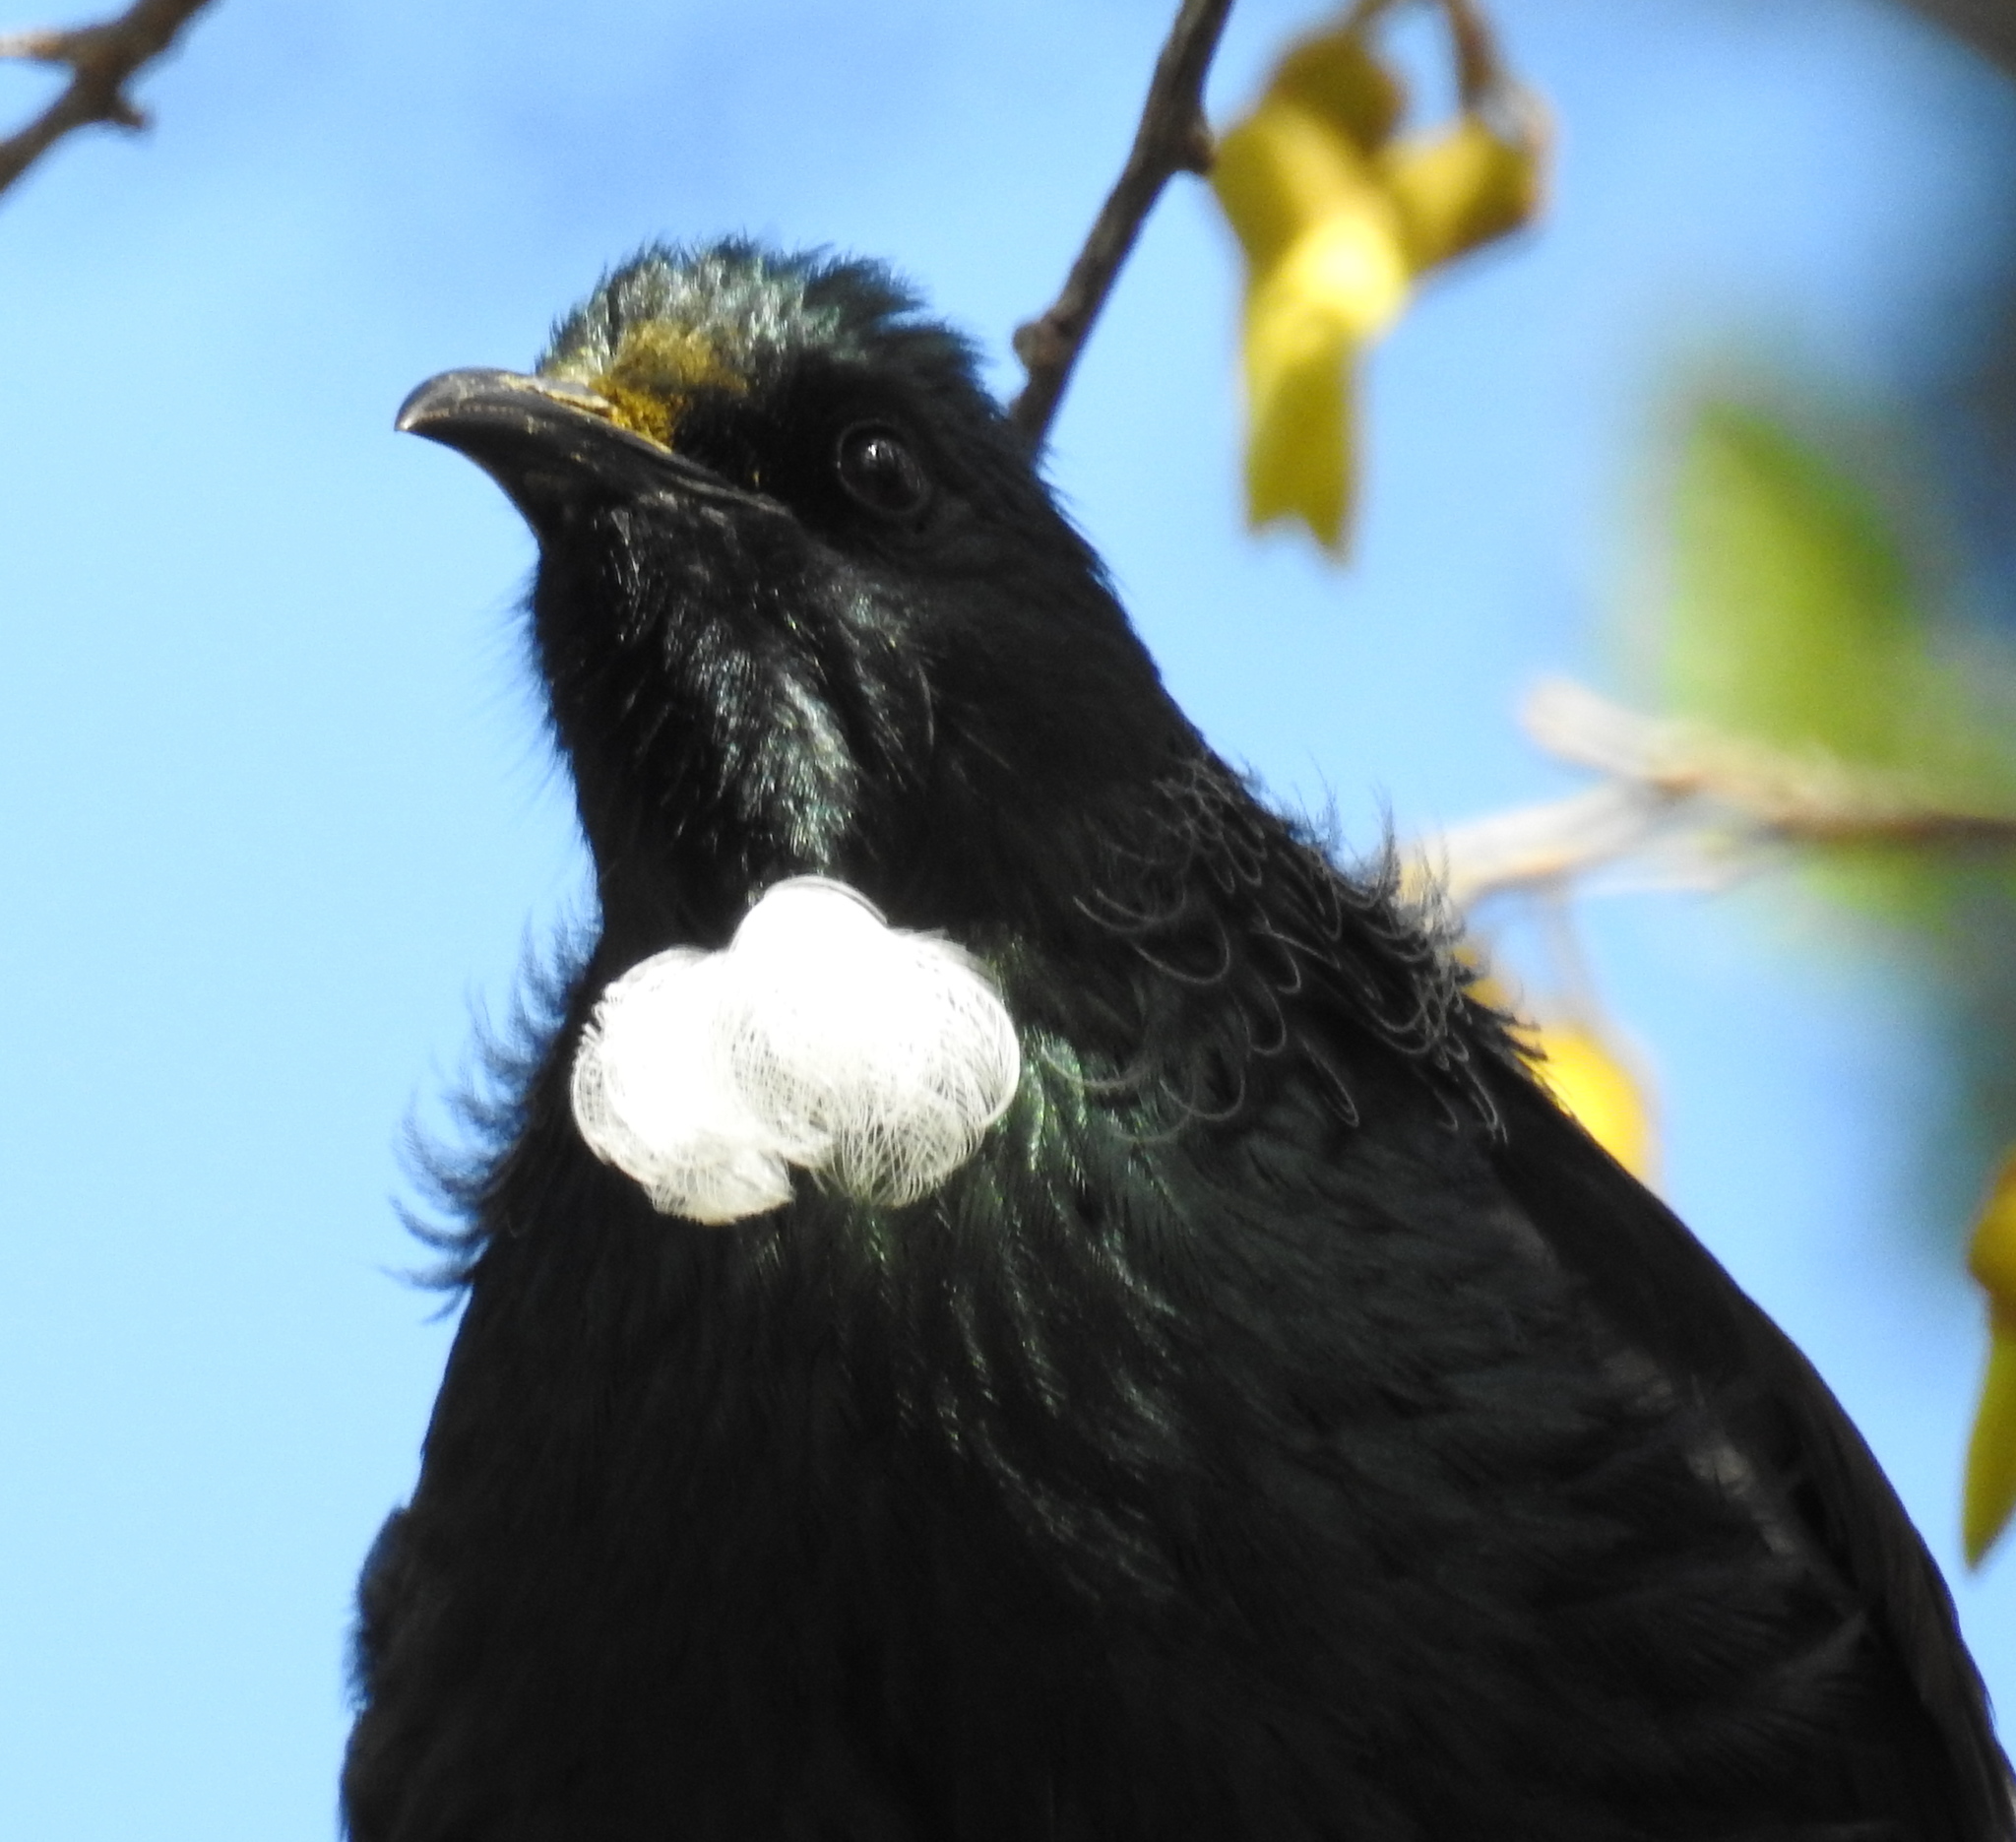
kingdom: Animalia
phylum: Chordata
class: Aves
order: Passeriformes
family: Meliphagidae
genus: Prosthemadera
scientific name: Prosthemadera novaeseelandiae
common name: Tui
